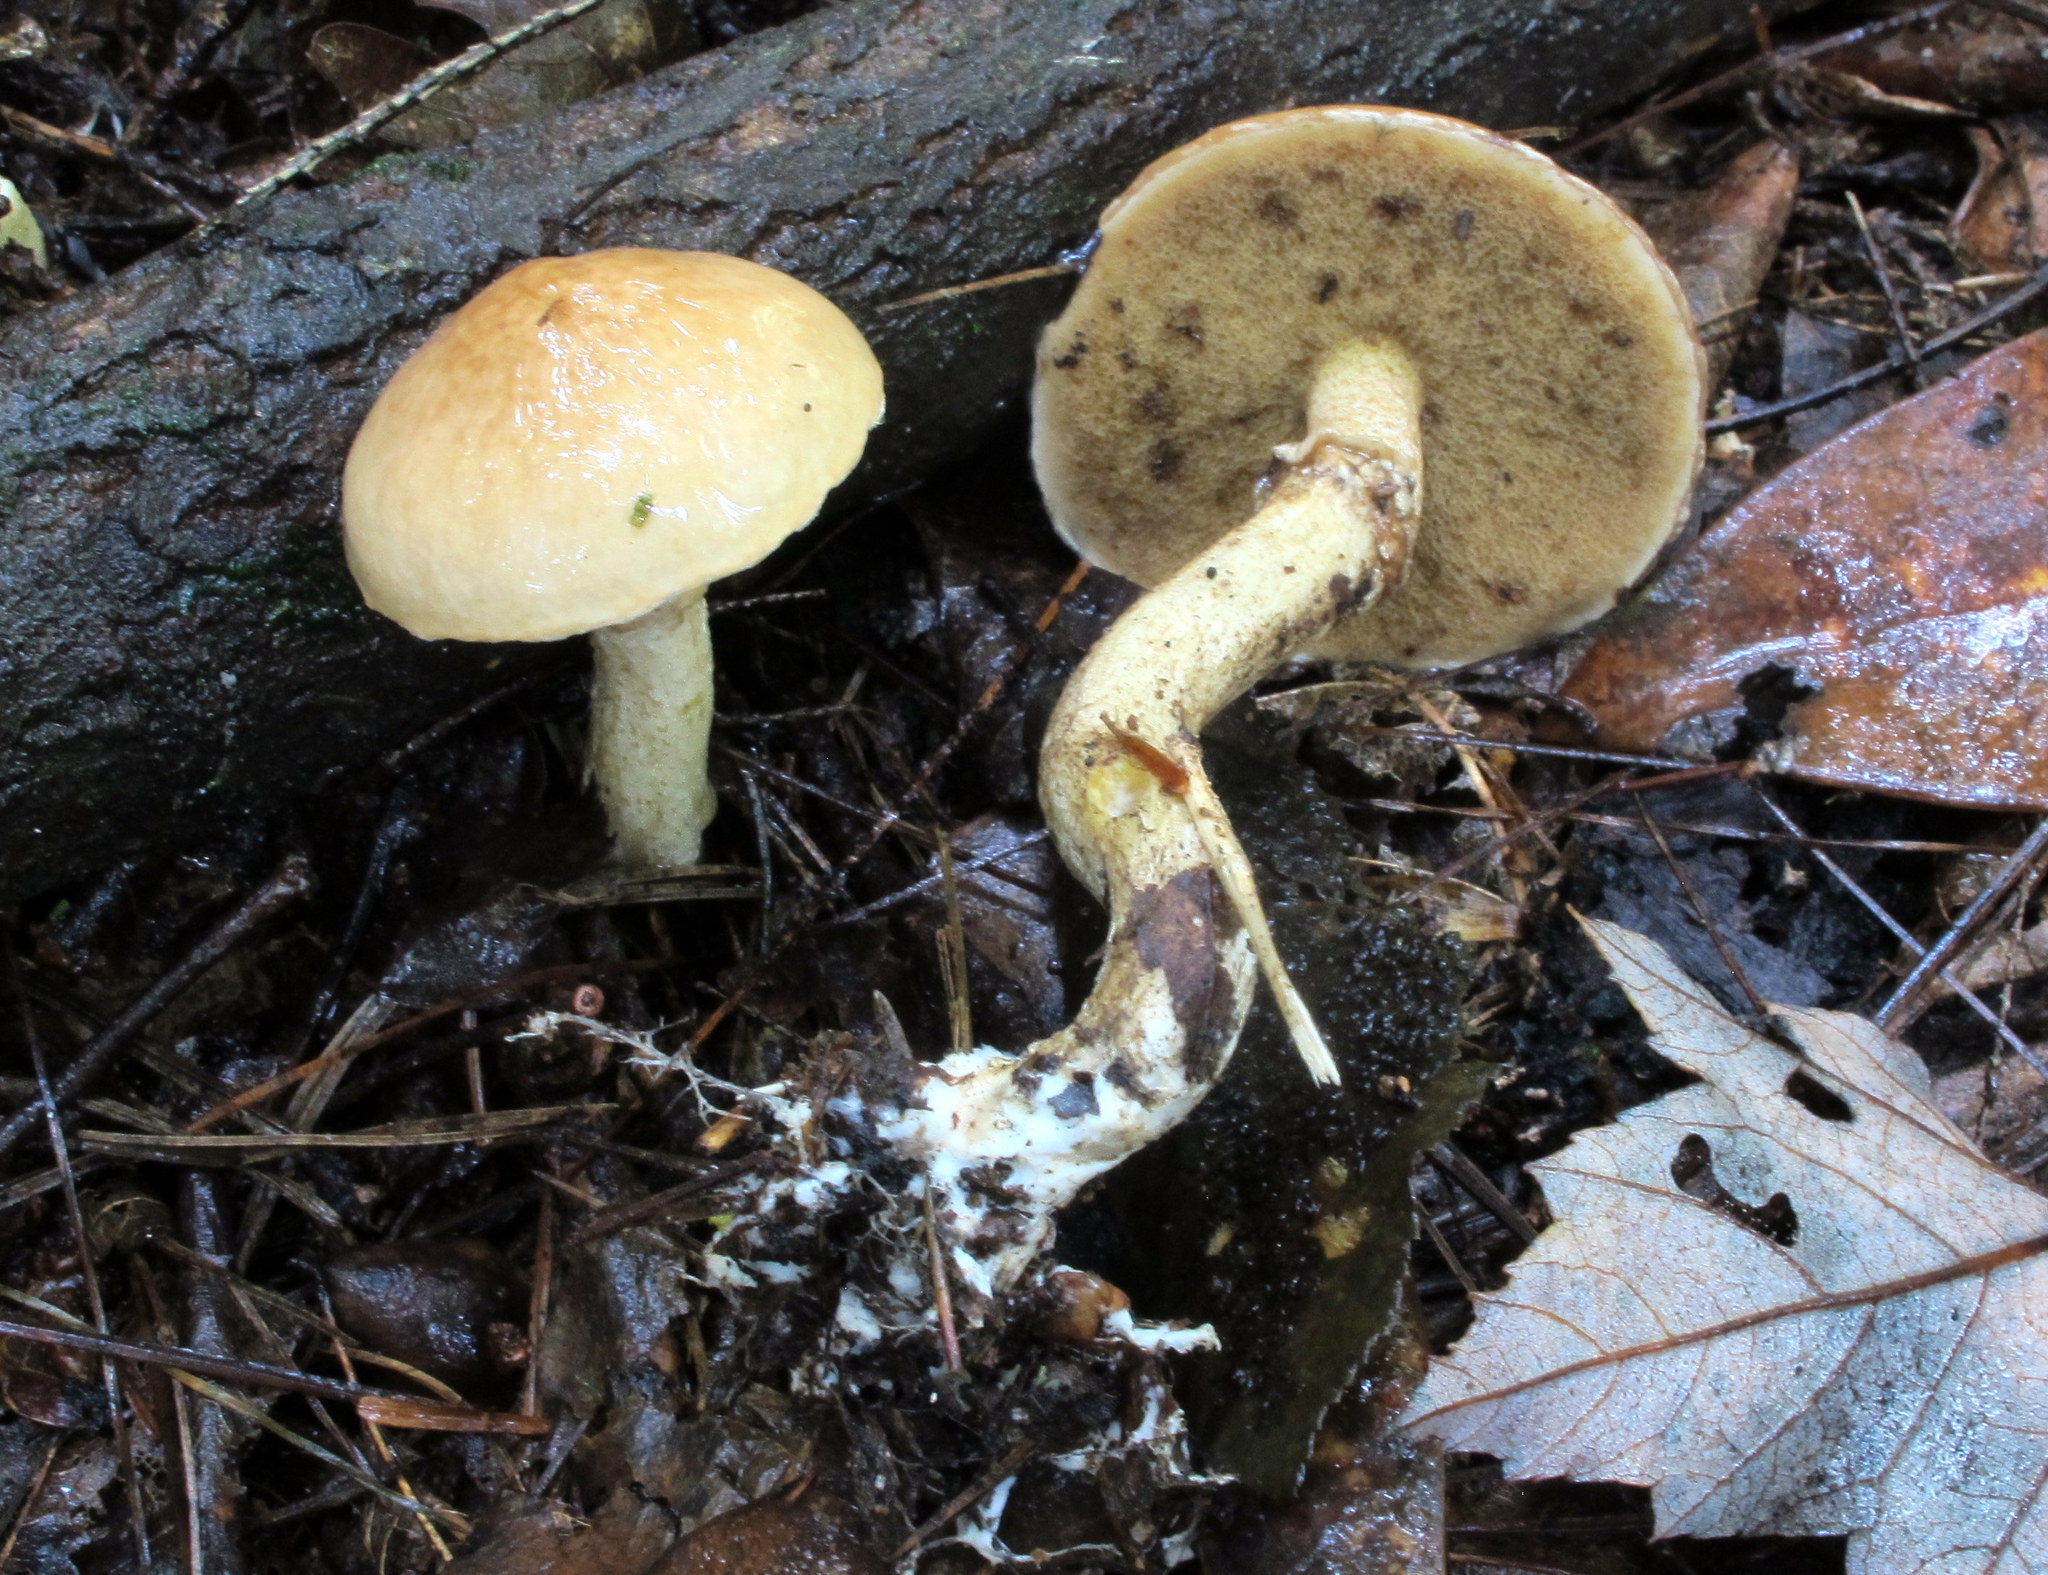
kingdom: Fungi
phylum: Basidiomycota
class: Agaricomycetes
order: Boletales
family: Suillaceae
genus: Suillus
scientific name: Suillus acidus
